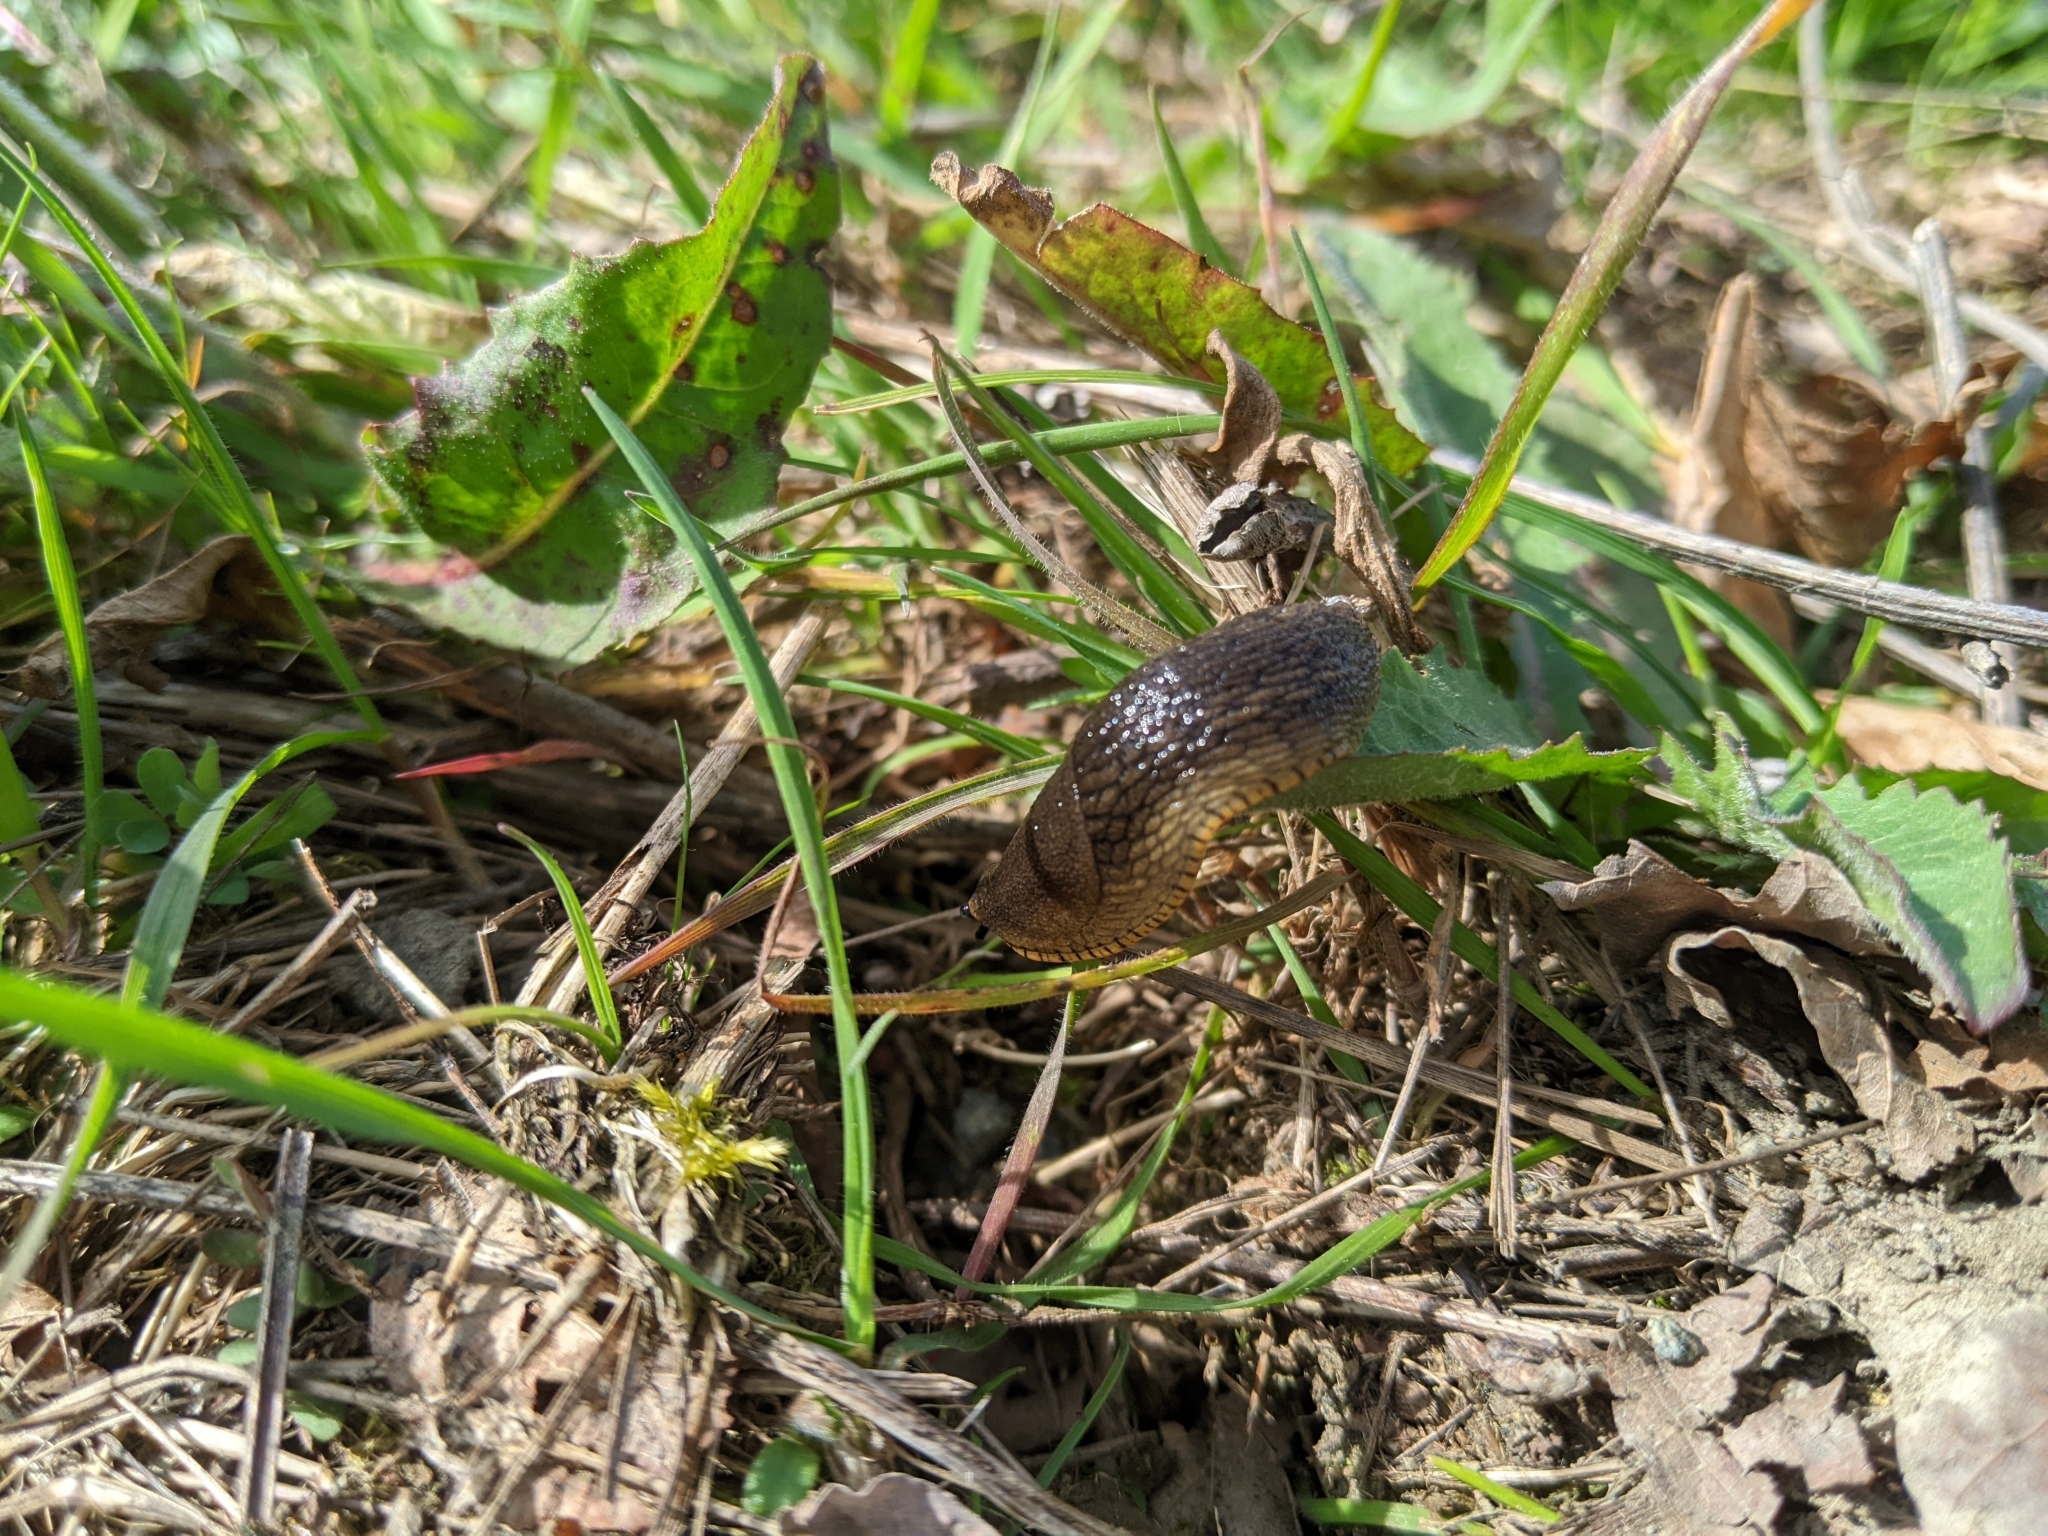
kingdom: Animalia
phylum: Mollusca
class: Gastropoda
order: Stylommatophora
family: Arionidae
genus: Arion
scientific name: Arion rufus
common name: Chocolate arion
